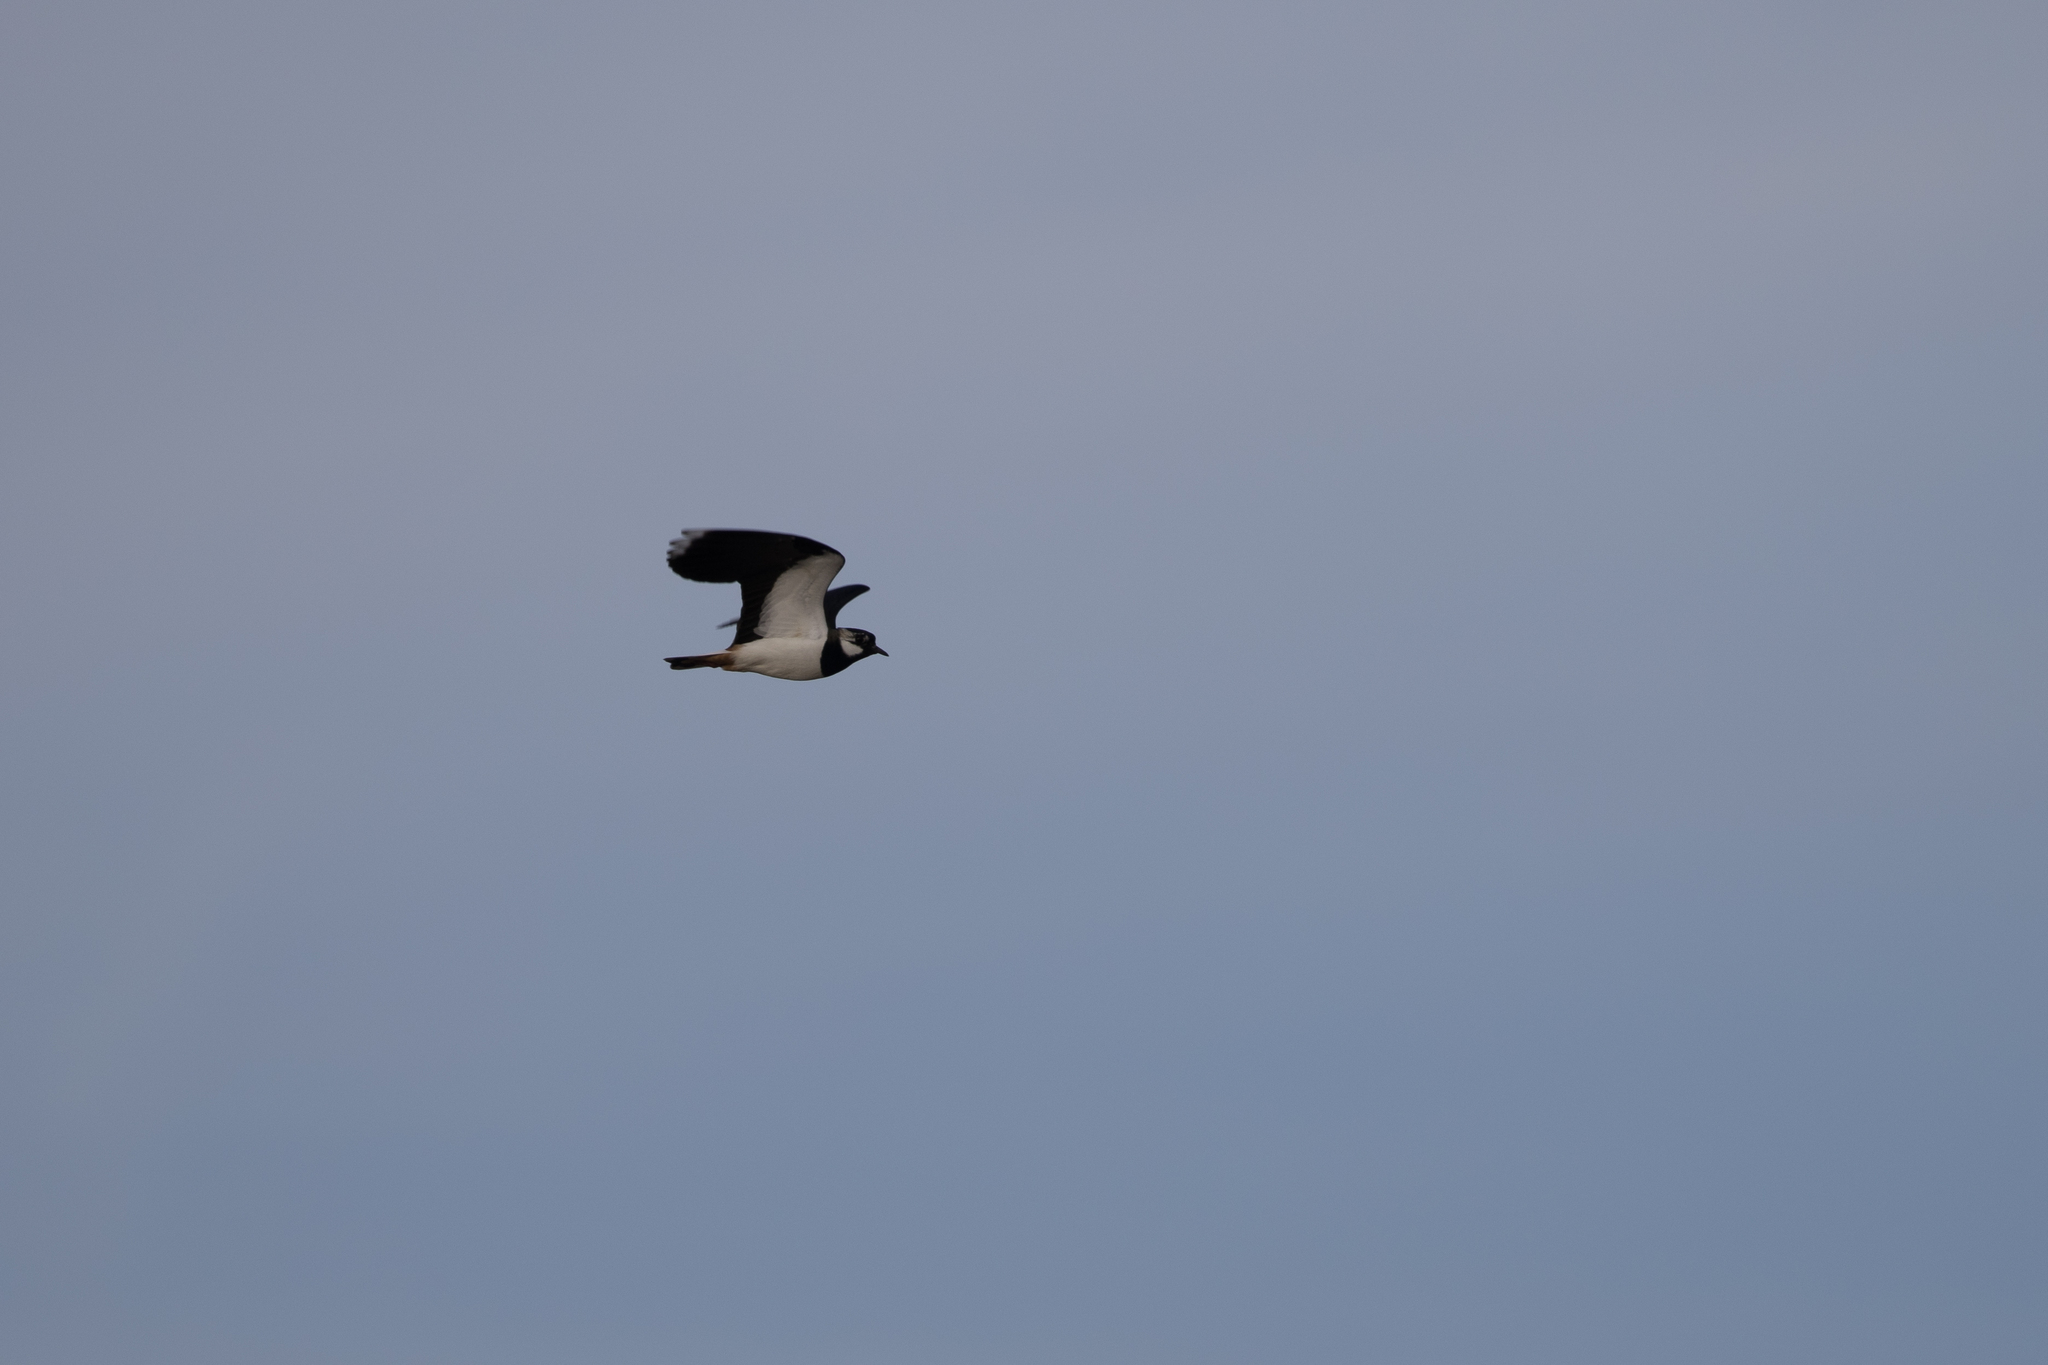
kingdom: Animalia
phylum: Chordata
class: Aves
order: Charadriiformes
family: Charadriidae
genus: Vanellus
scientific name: Vanellus vanellus
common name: Northern lapwing
